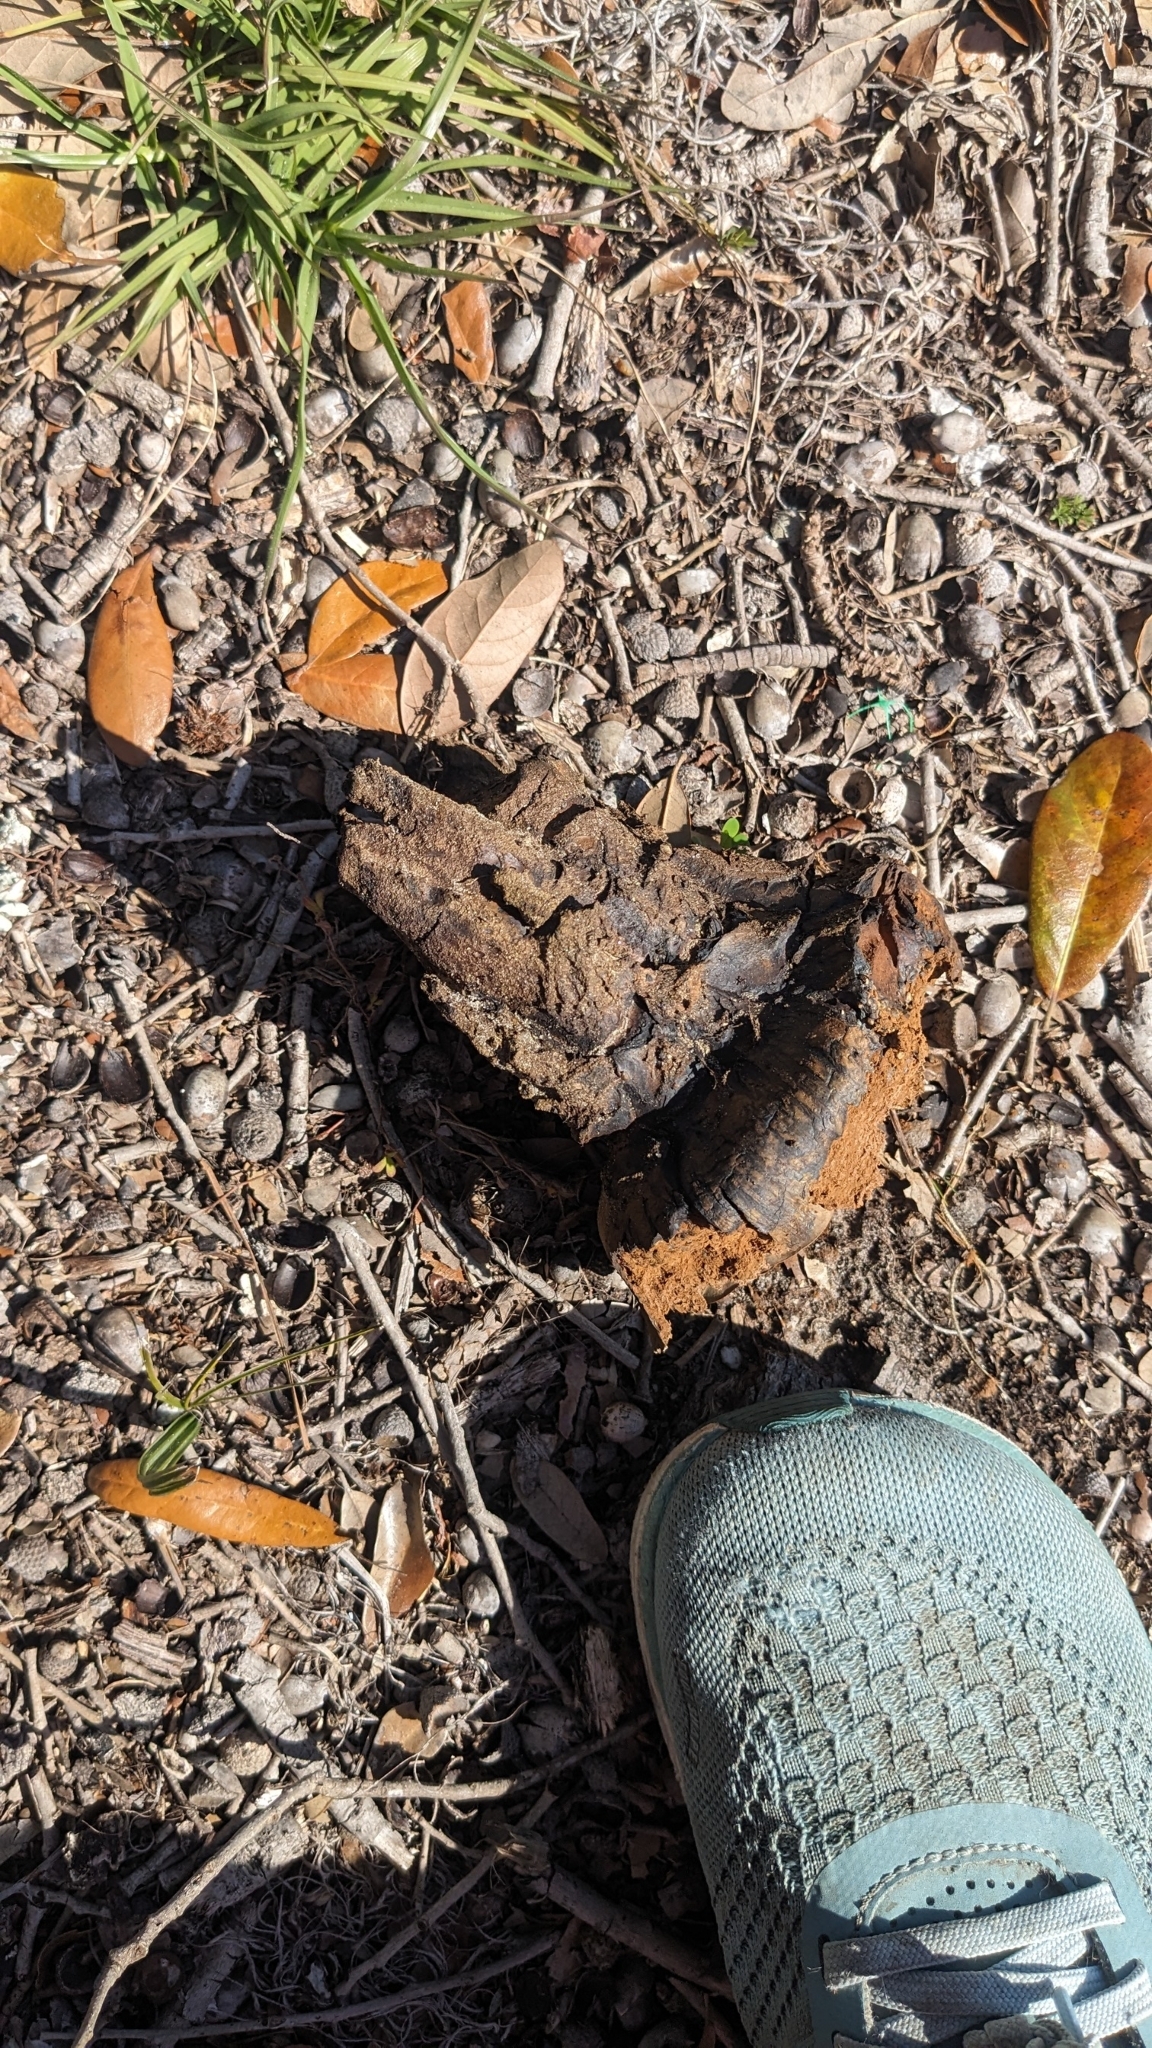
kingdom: Fungi
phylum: Basidiomycota
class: Agaricomycetes
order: Boletales
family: Sclerodermataceae
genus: Pisolithus
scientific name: Pisolithus arenarius
